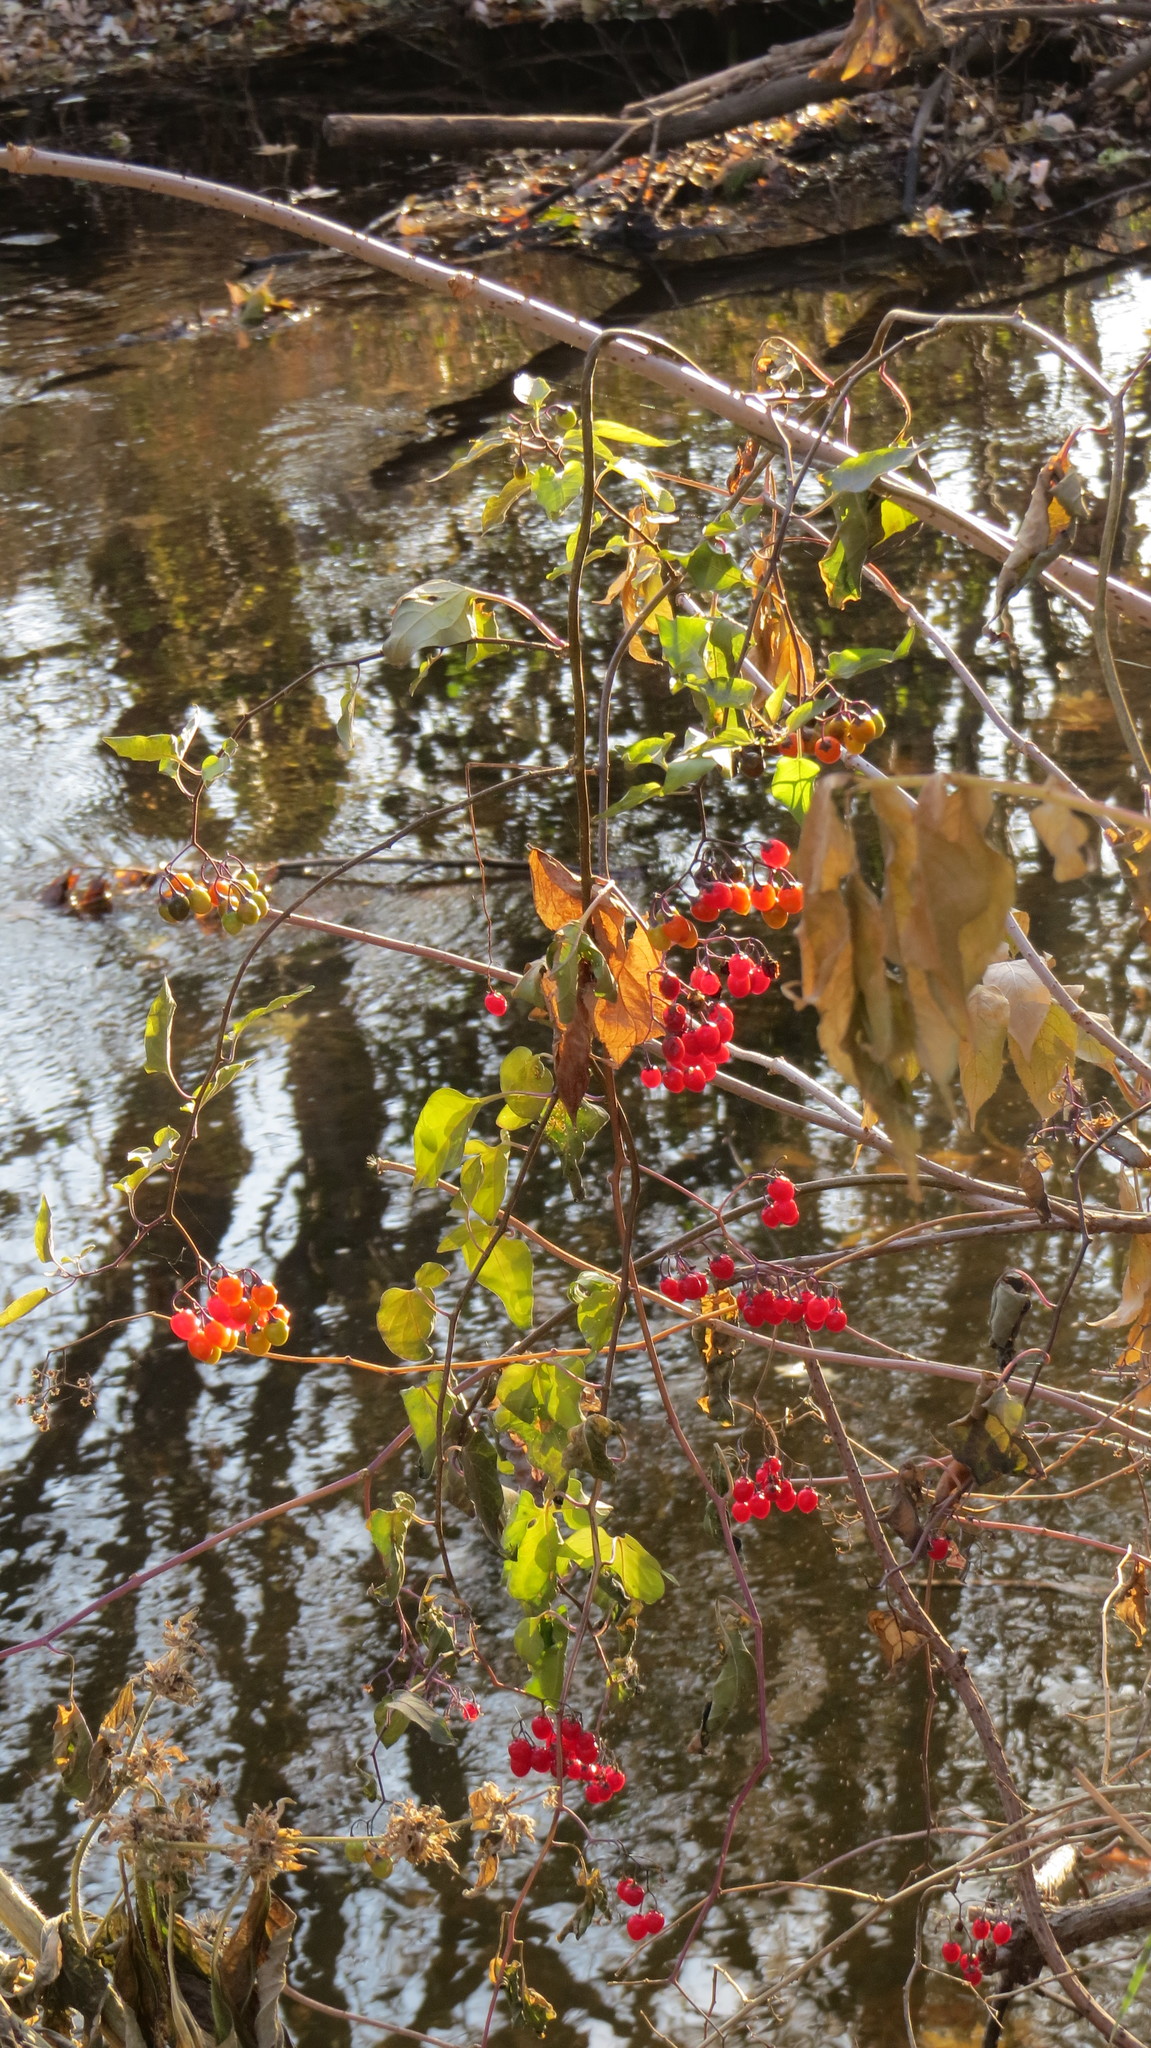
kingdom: Plantae
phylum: Tracheophyta
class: Magnoliopsida
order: Solanales
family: Solanaceae
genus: Solanum
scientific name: Solanum dulcamara
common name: Climbing nightshade
